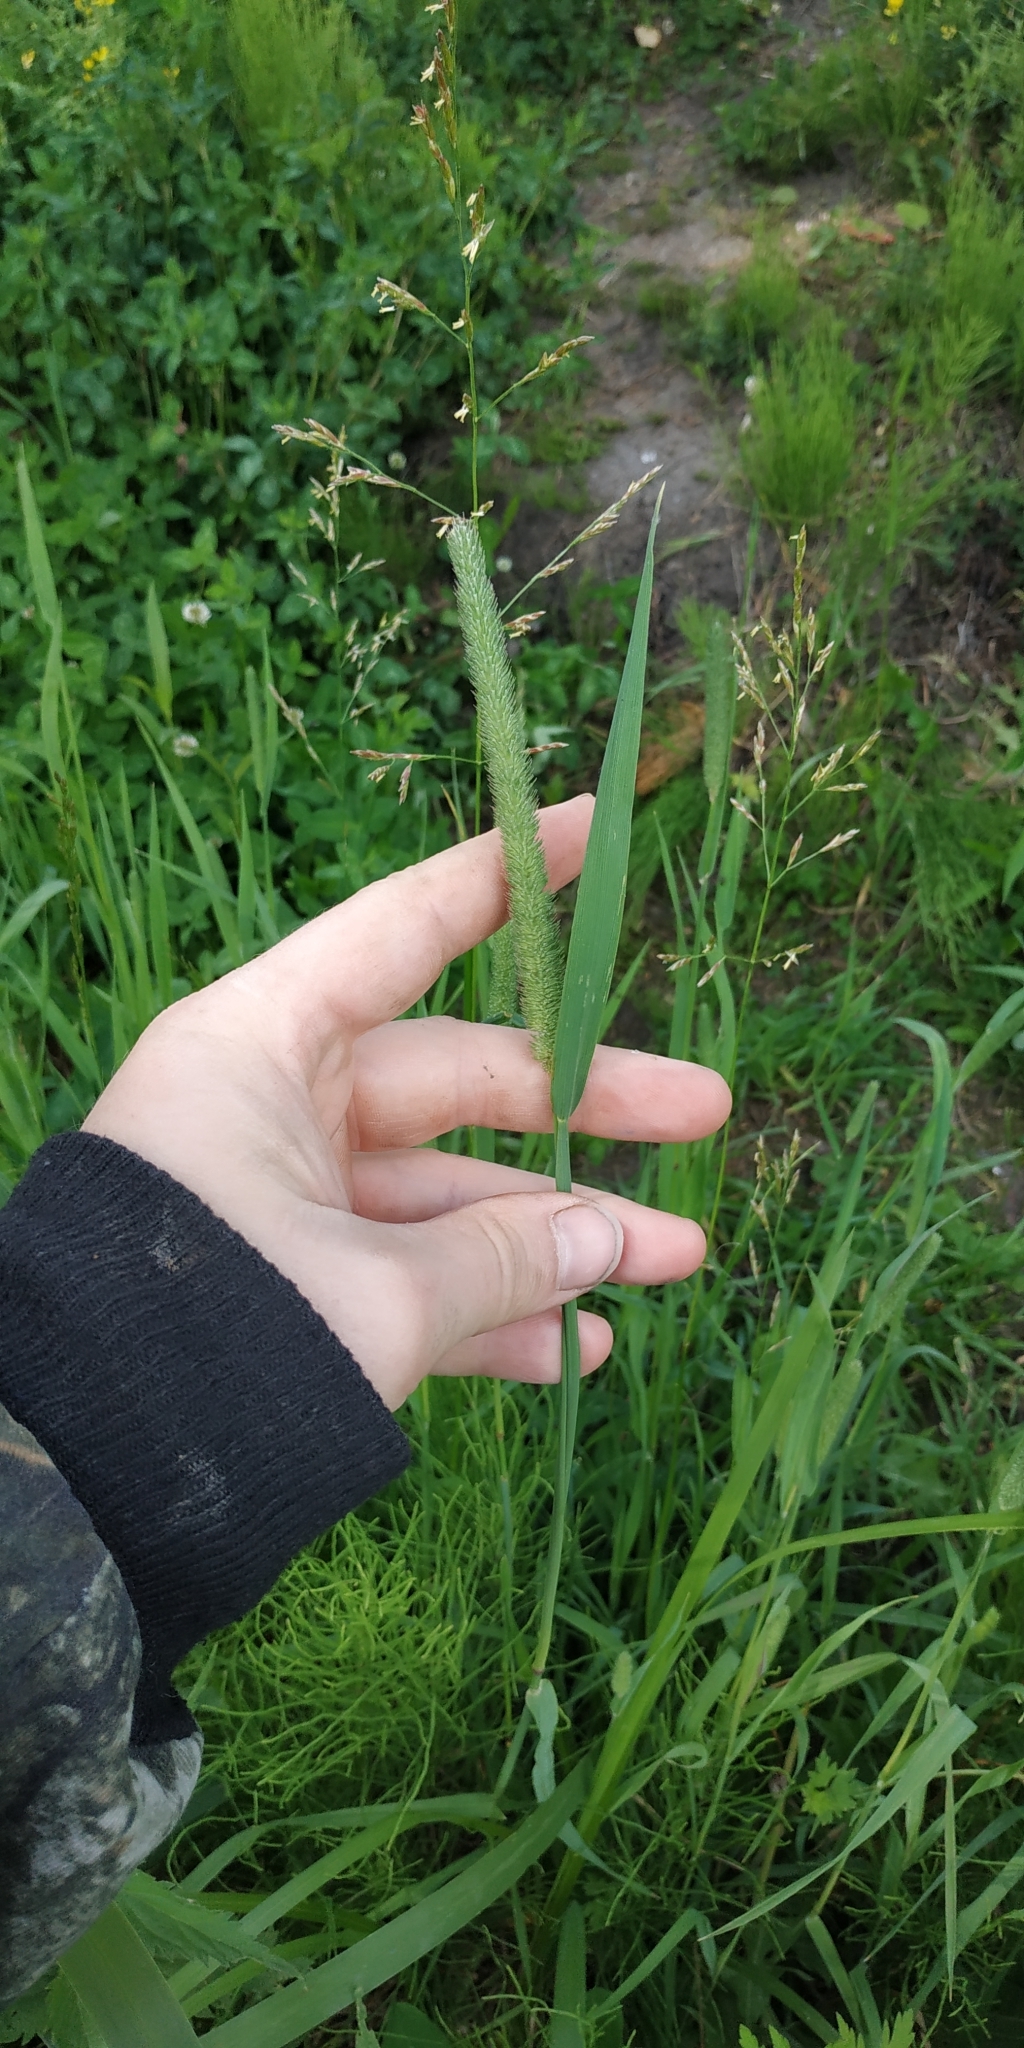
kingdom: Plantae
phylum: Tracheophyta
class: Liliopsida
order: Poales
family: Poaceae
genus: Phleum
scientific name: Phleum pratense
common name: Timothy grass
